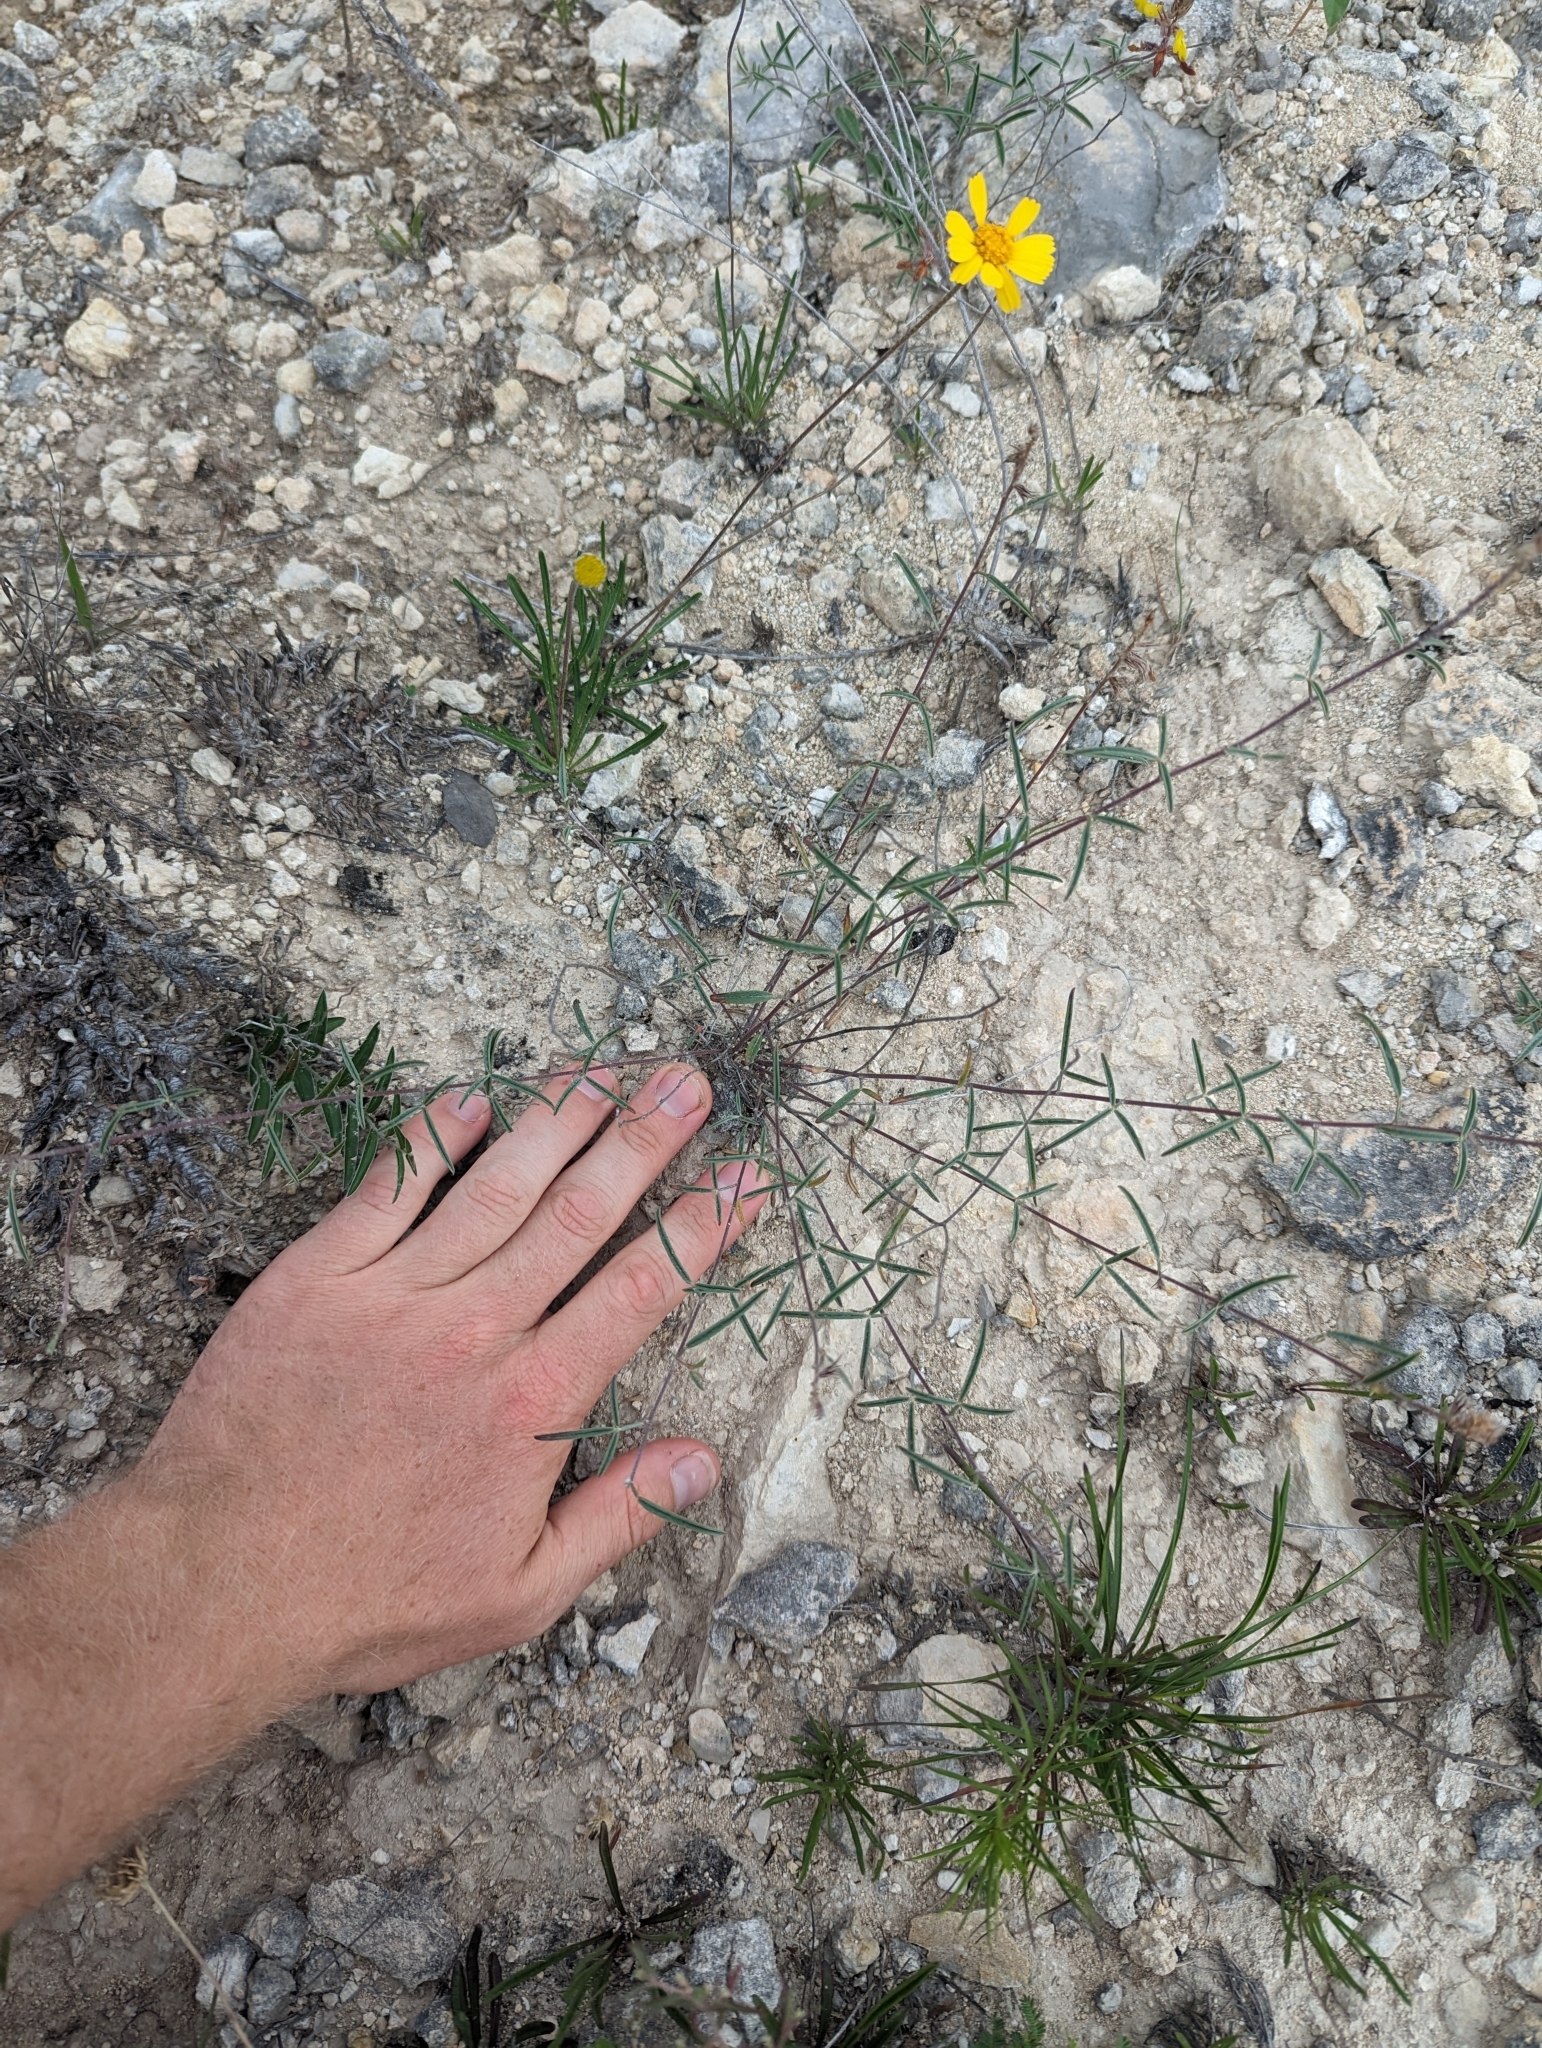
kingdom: Plantae
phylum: Tracheophyta
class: Magnoliopsida
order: Fabales
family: Fabaceae
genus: Dalea
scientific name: Dalea hallii
